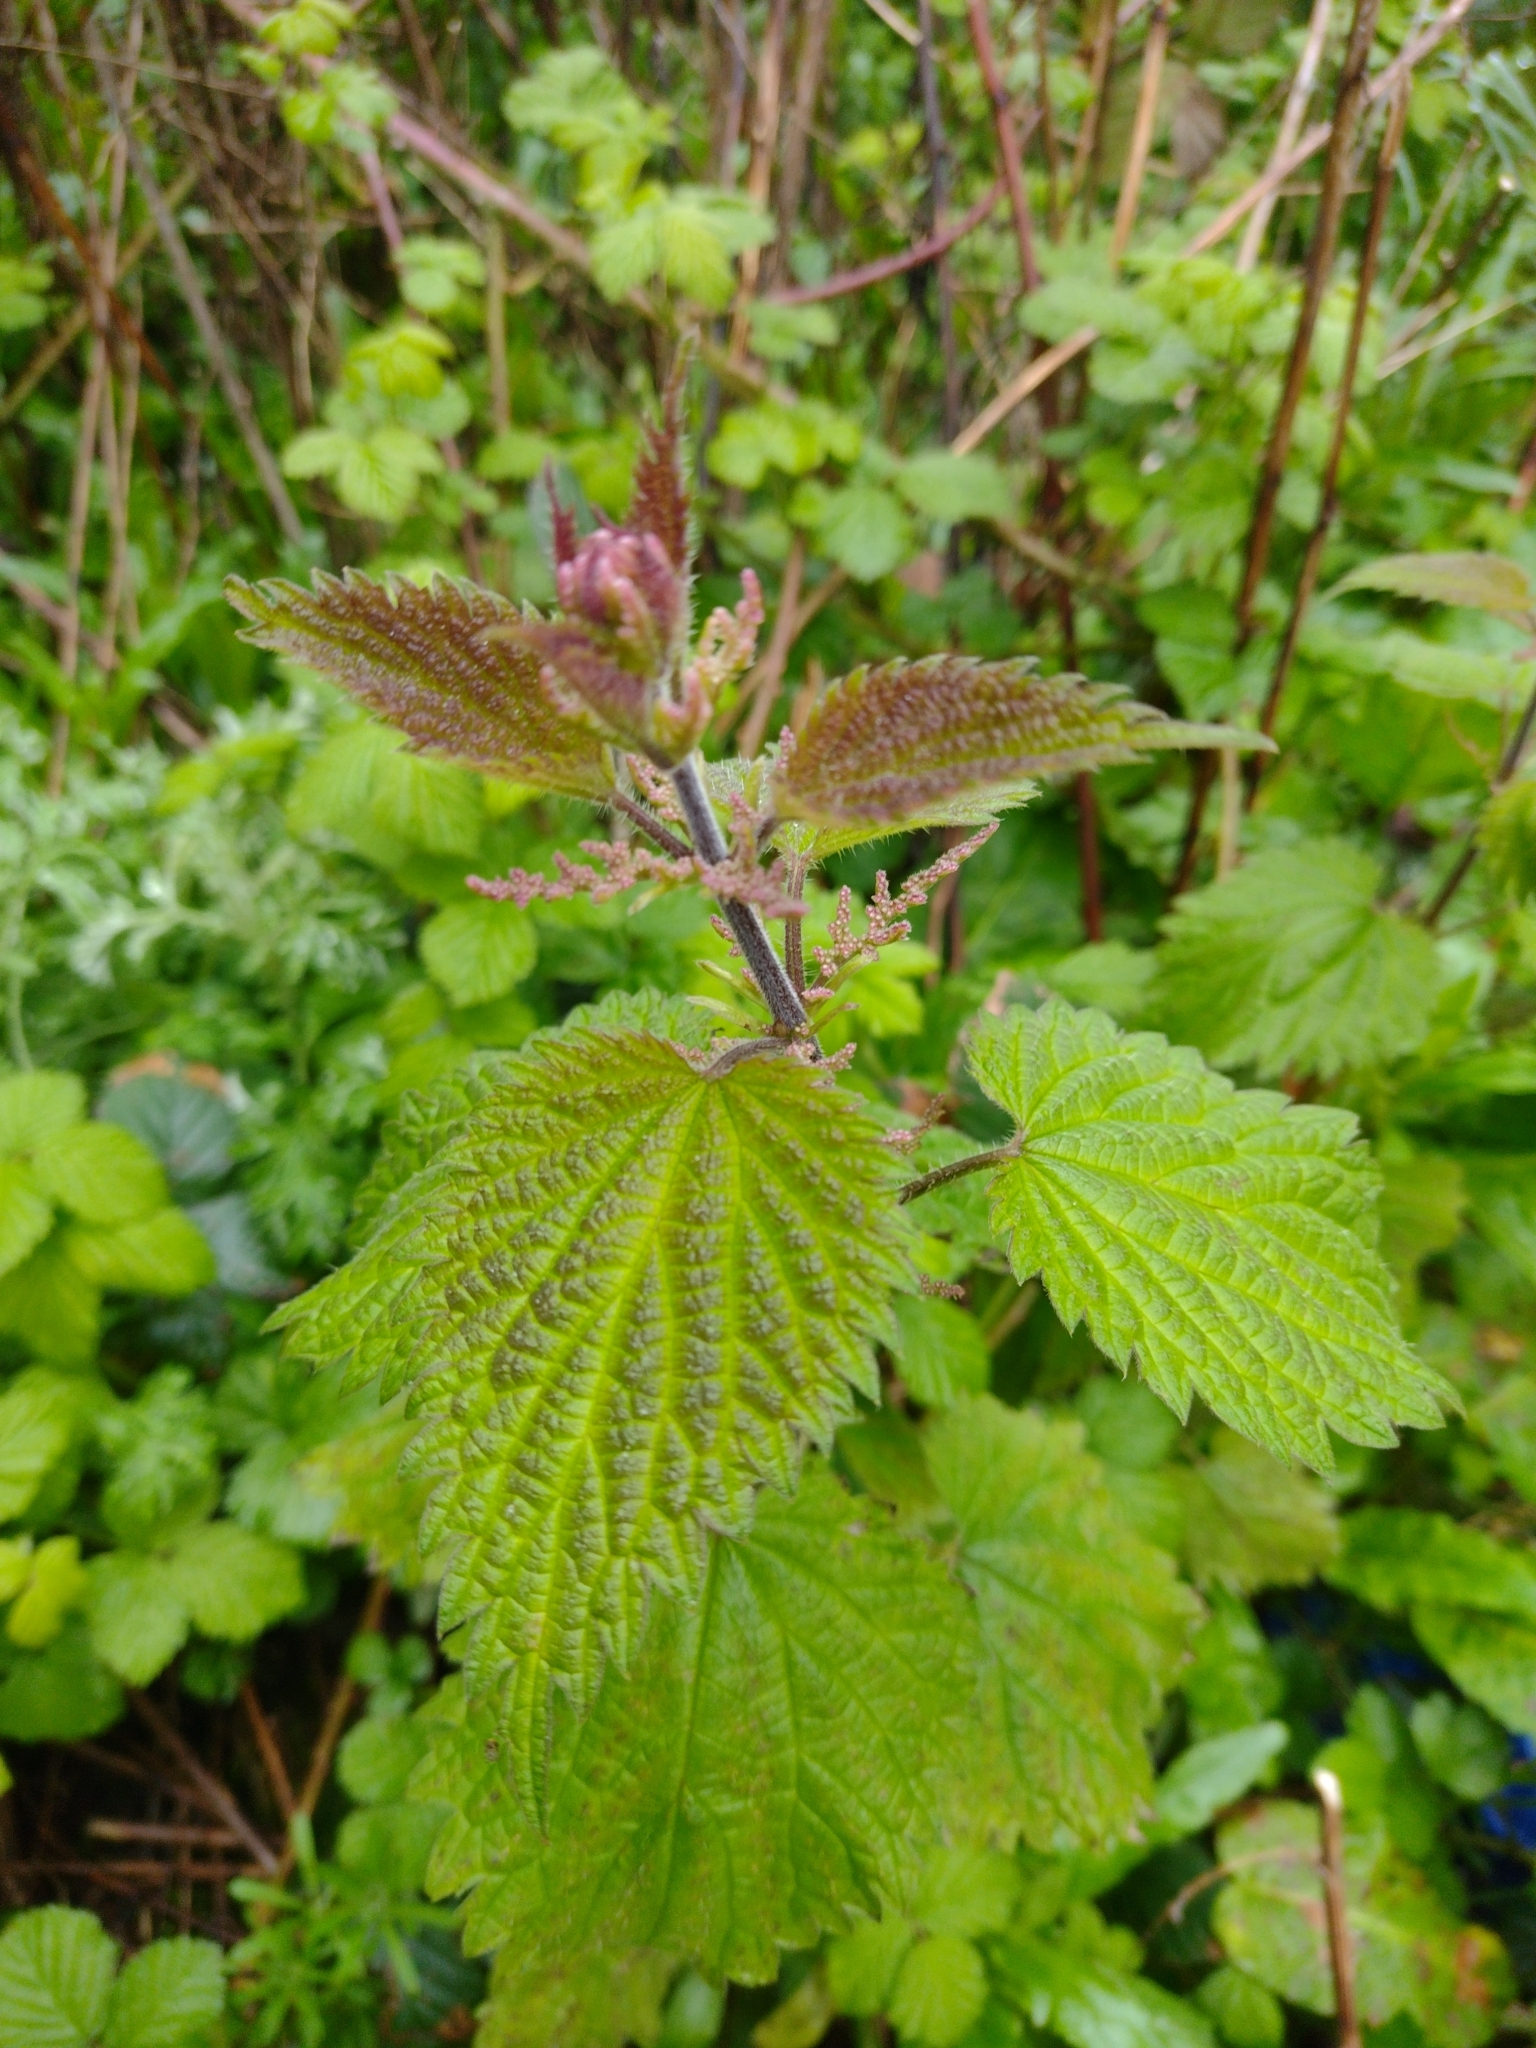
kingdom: Plantae
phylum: Tracheophyta
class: Magnoliopsida
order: Rosales
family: Urticaceae
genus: Urtica
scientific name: Urtica dioica
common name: Common nettle
